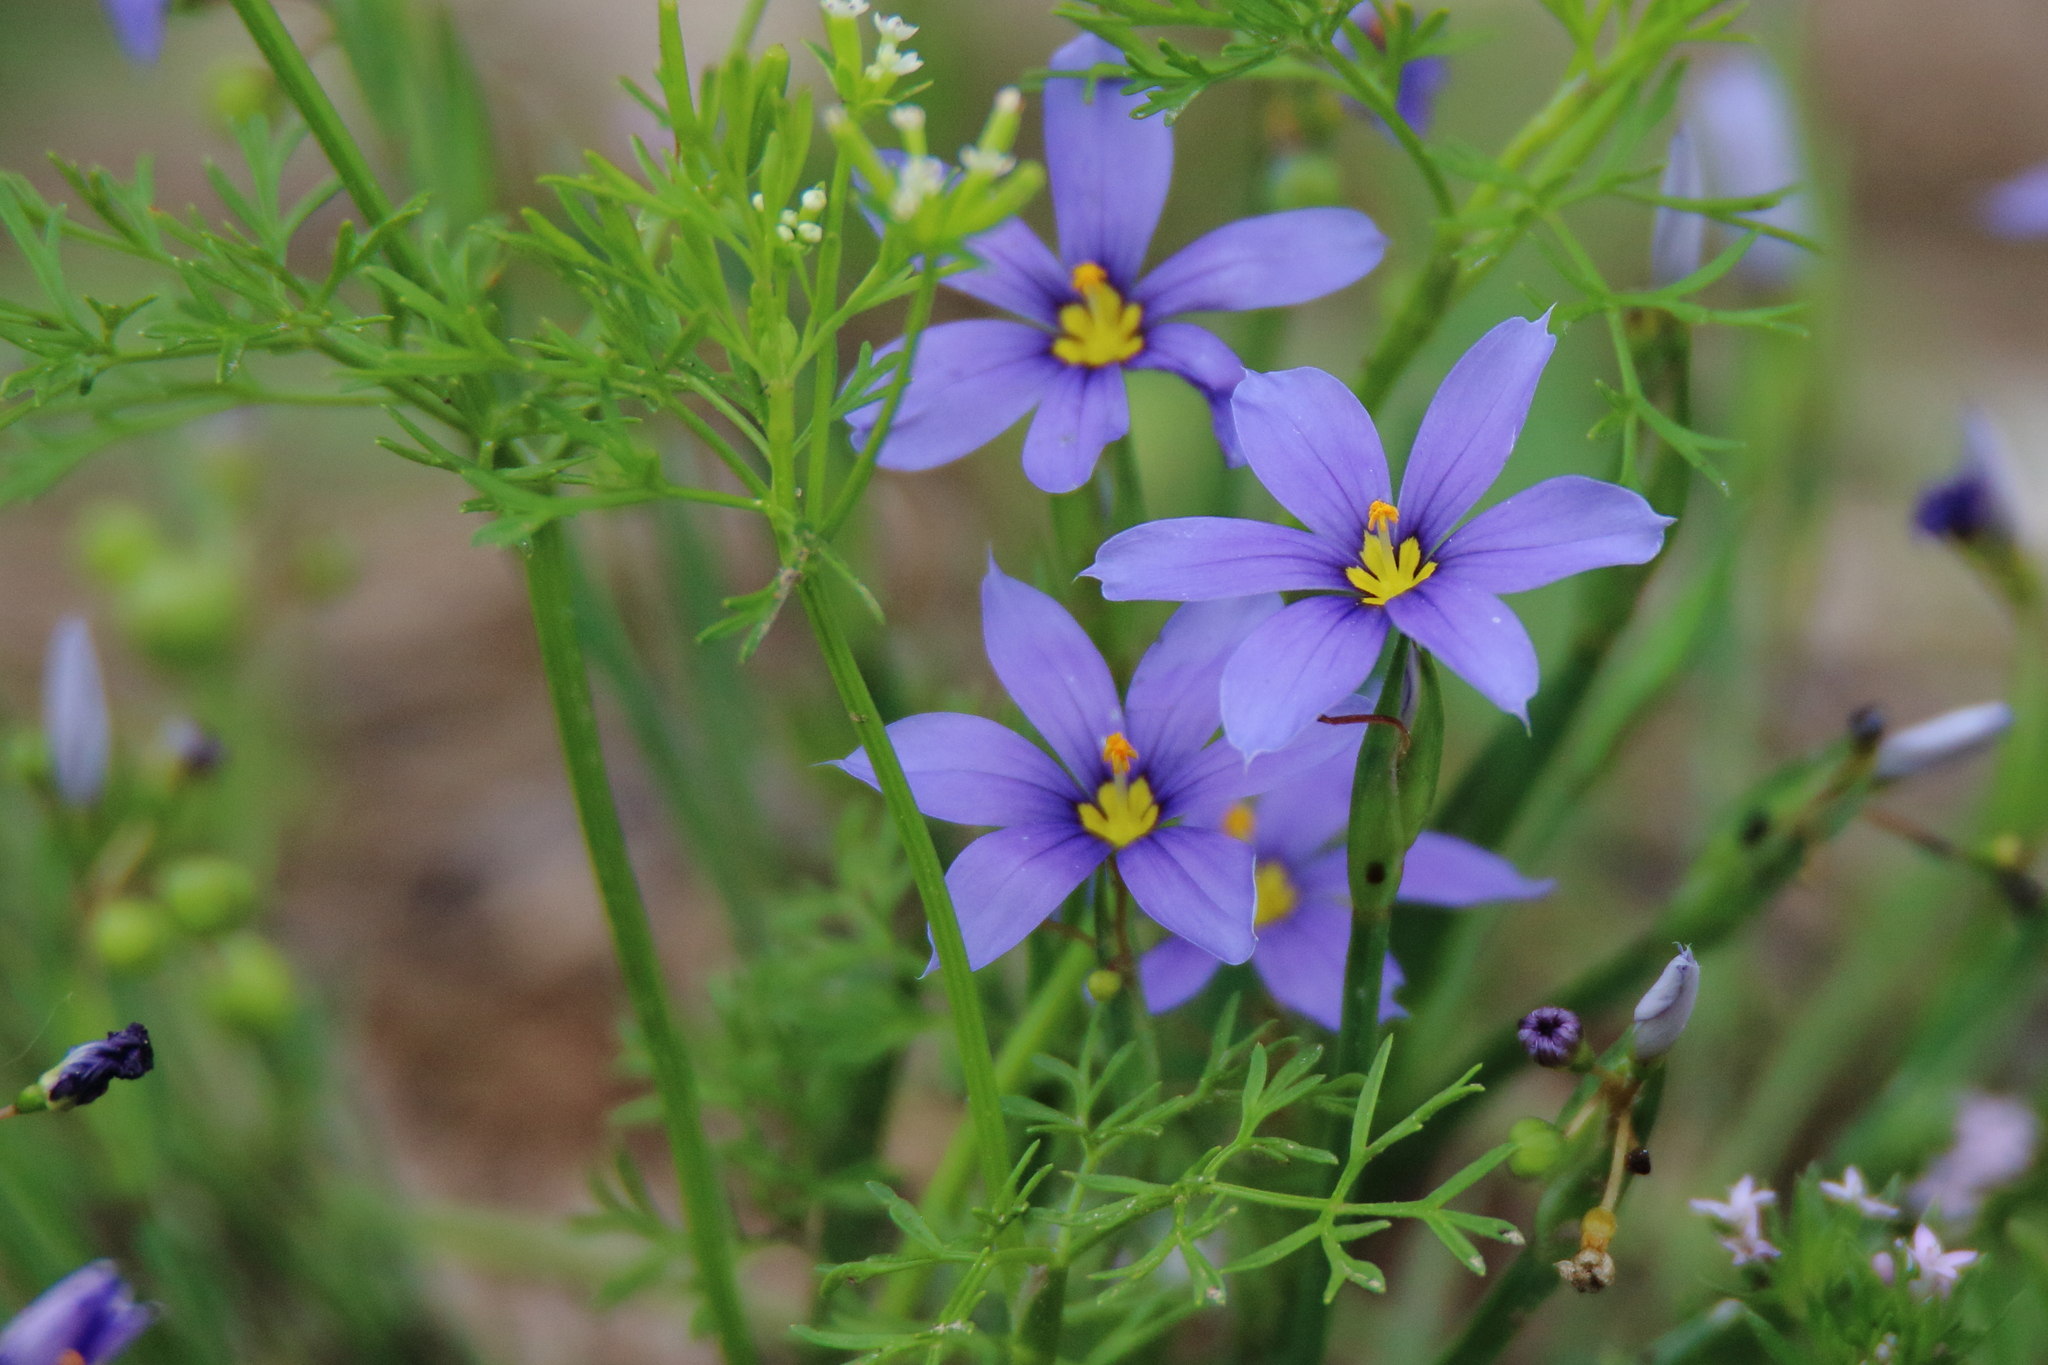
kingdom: Plantae
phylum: Tracheophyta
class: Liliopsida
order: Asparagales
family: Iridaceae
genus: Sisyrinchium
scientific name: Sisyrinchium pruinosum
